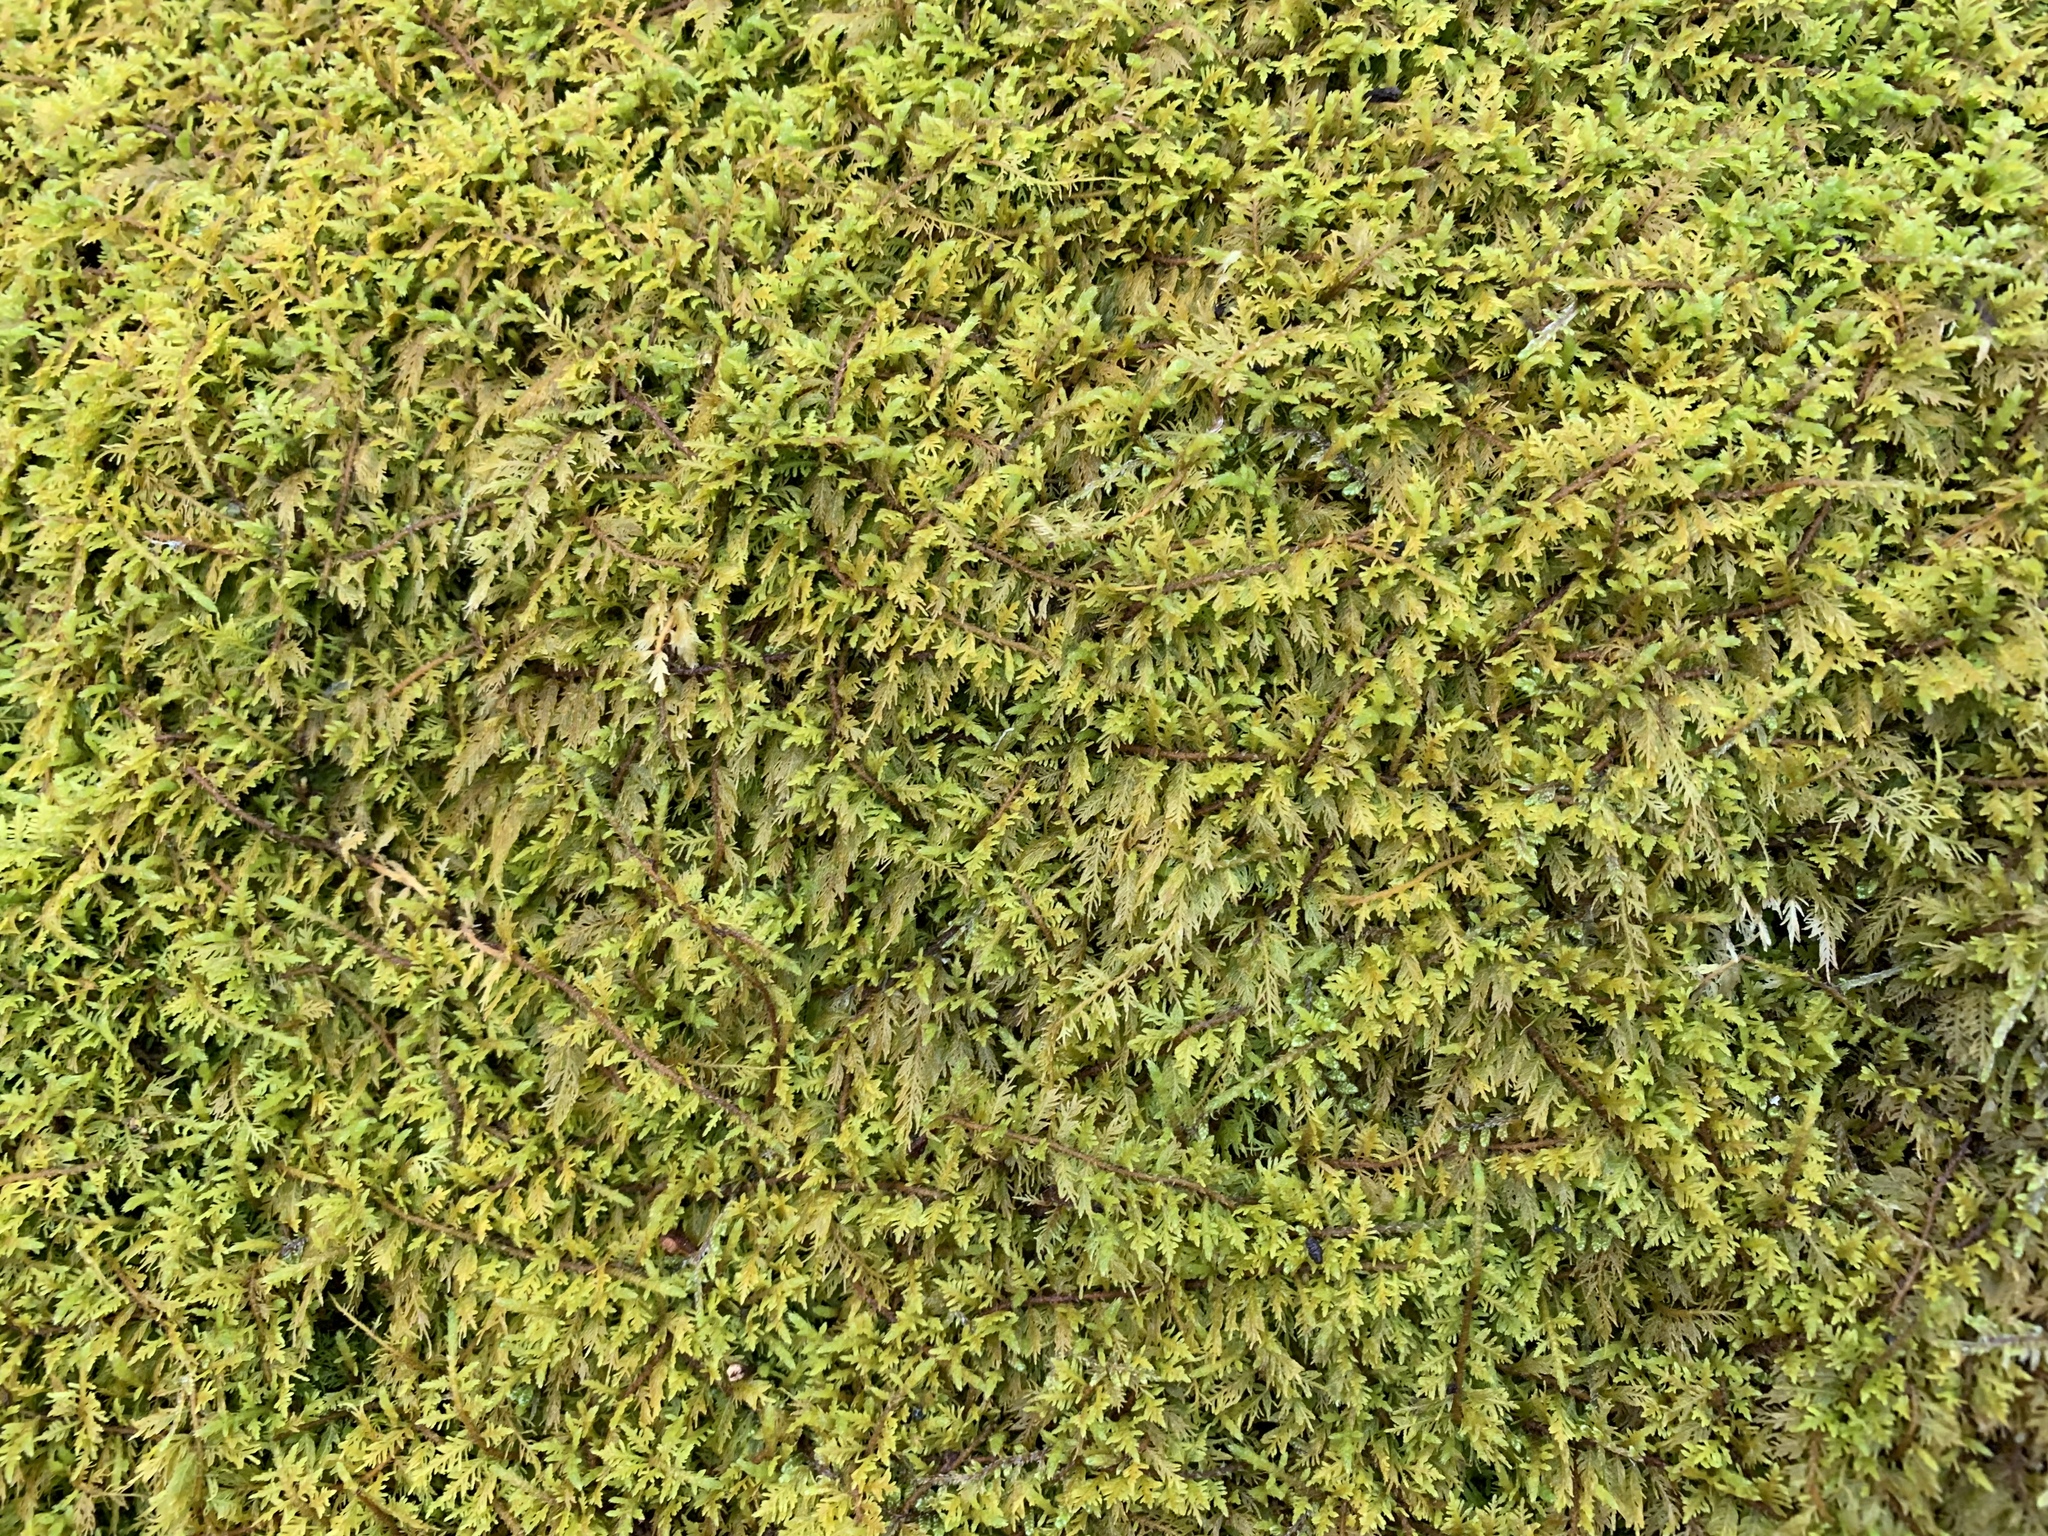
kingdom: Plantae
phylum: Bryophyta
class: Bryopsida
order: Hypnales
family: Thuidiaceae
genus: Thuidium
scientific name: Thuidium delicatulum
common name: Delicate fern moss
